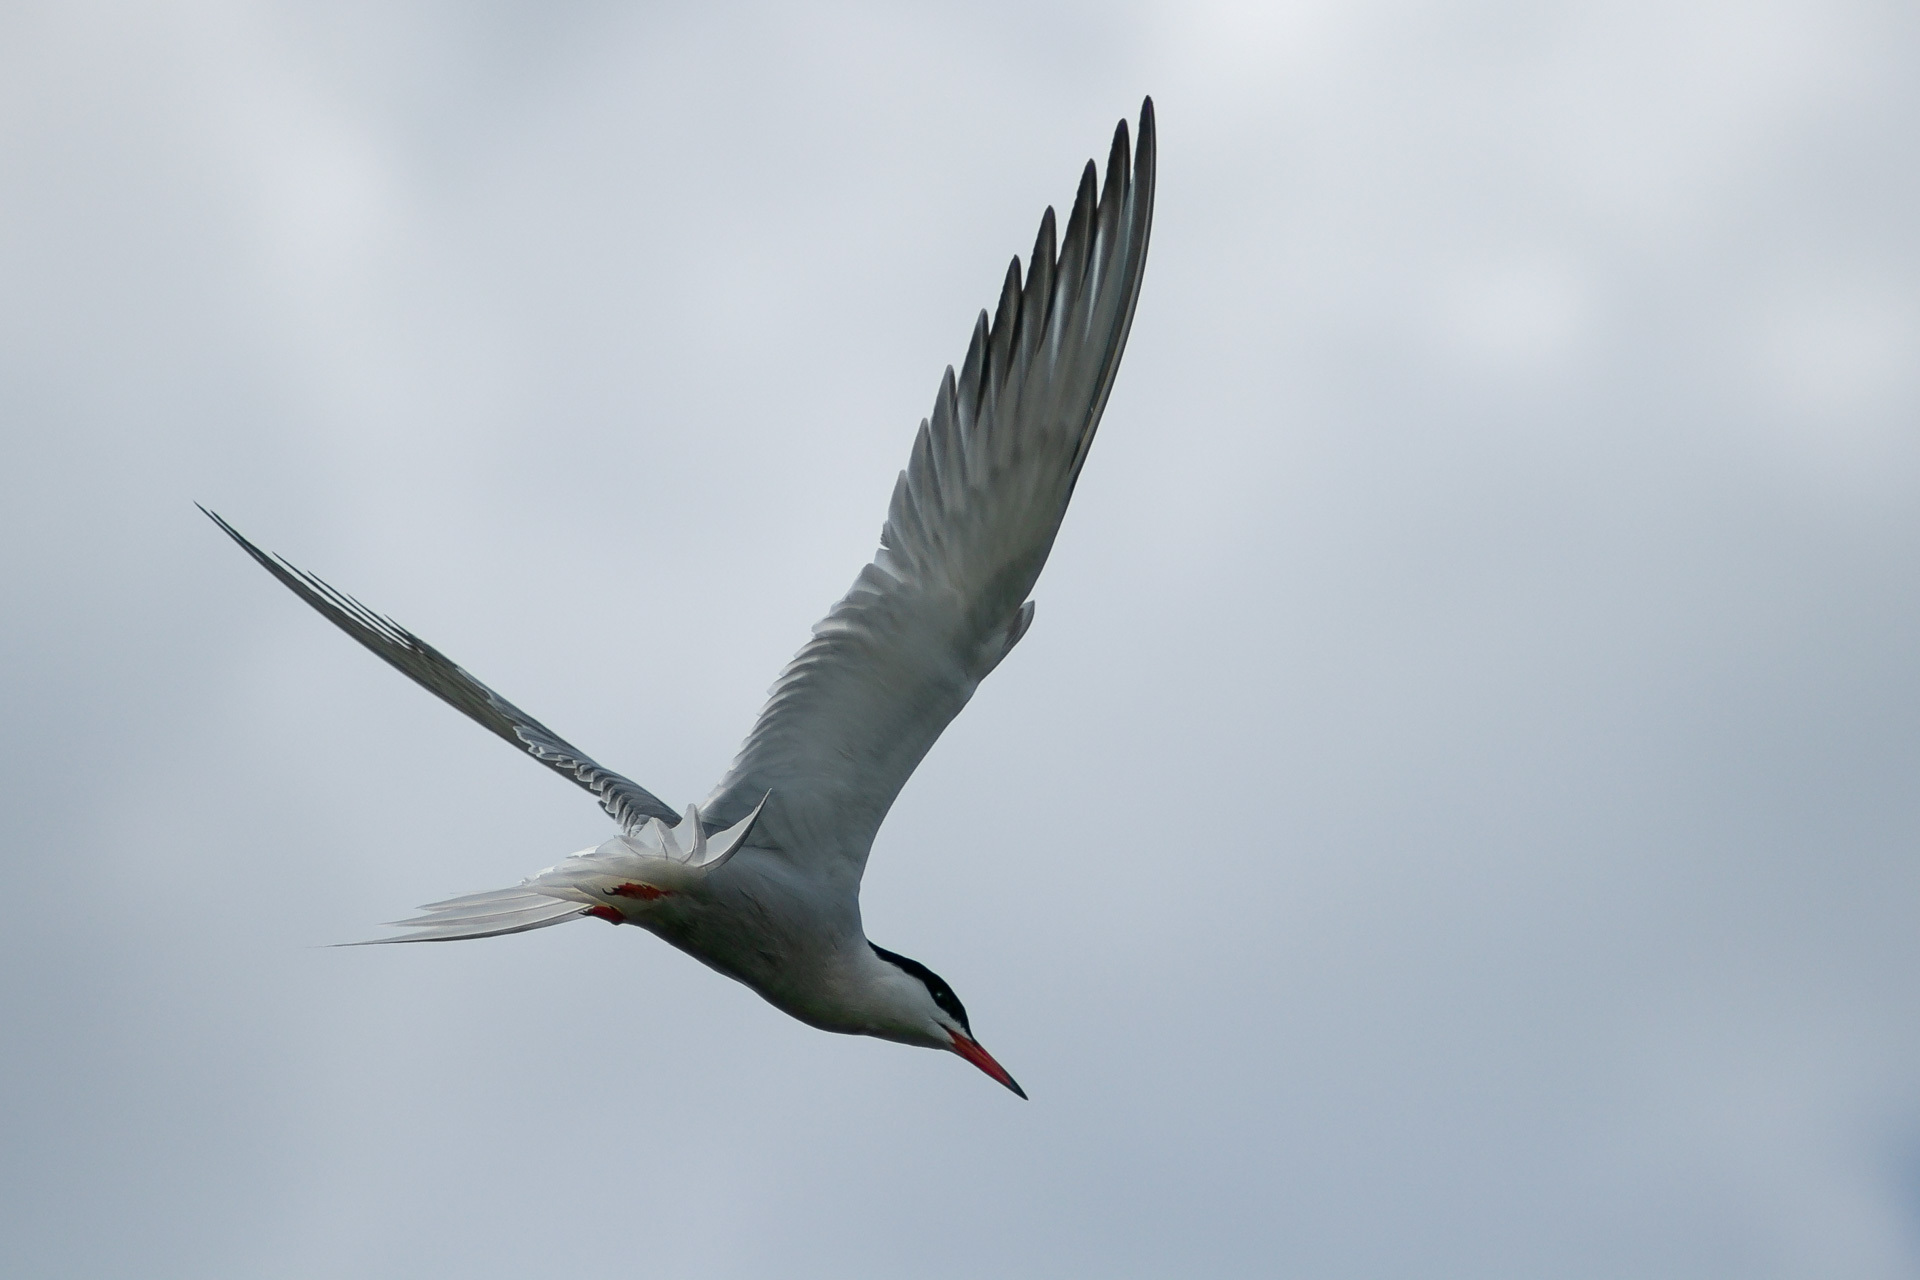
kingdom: Animalia
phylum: Chordata
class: Aves
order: Charadriiformes
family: Laridae
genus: Sterna
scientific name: Sterna hirundo
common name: Common tern
